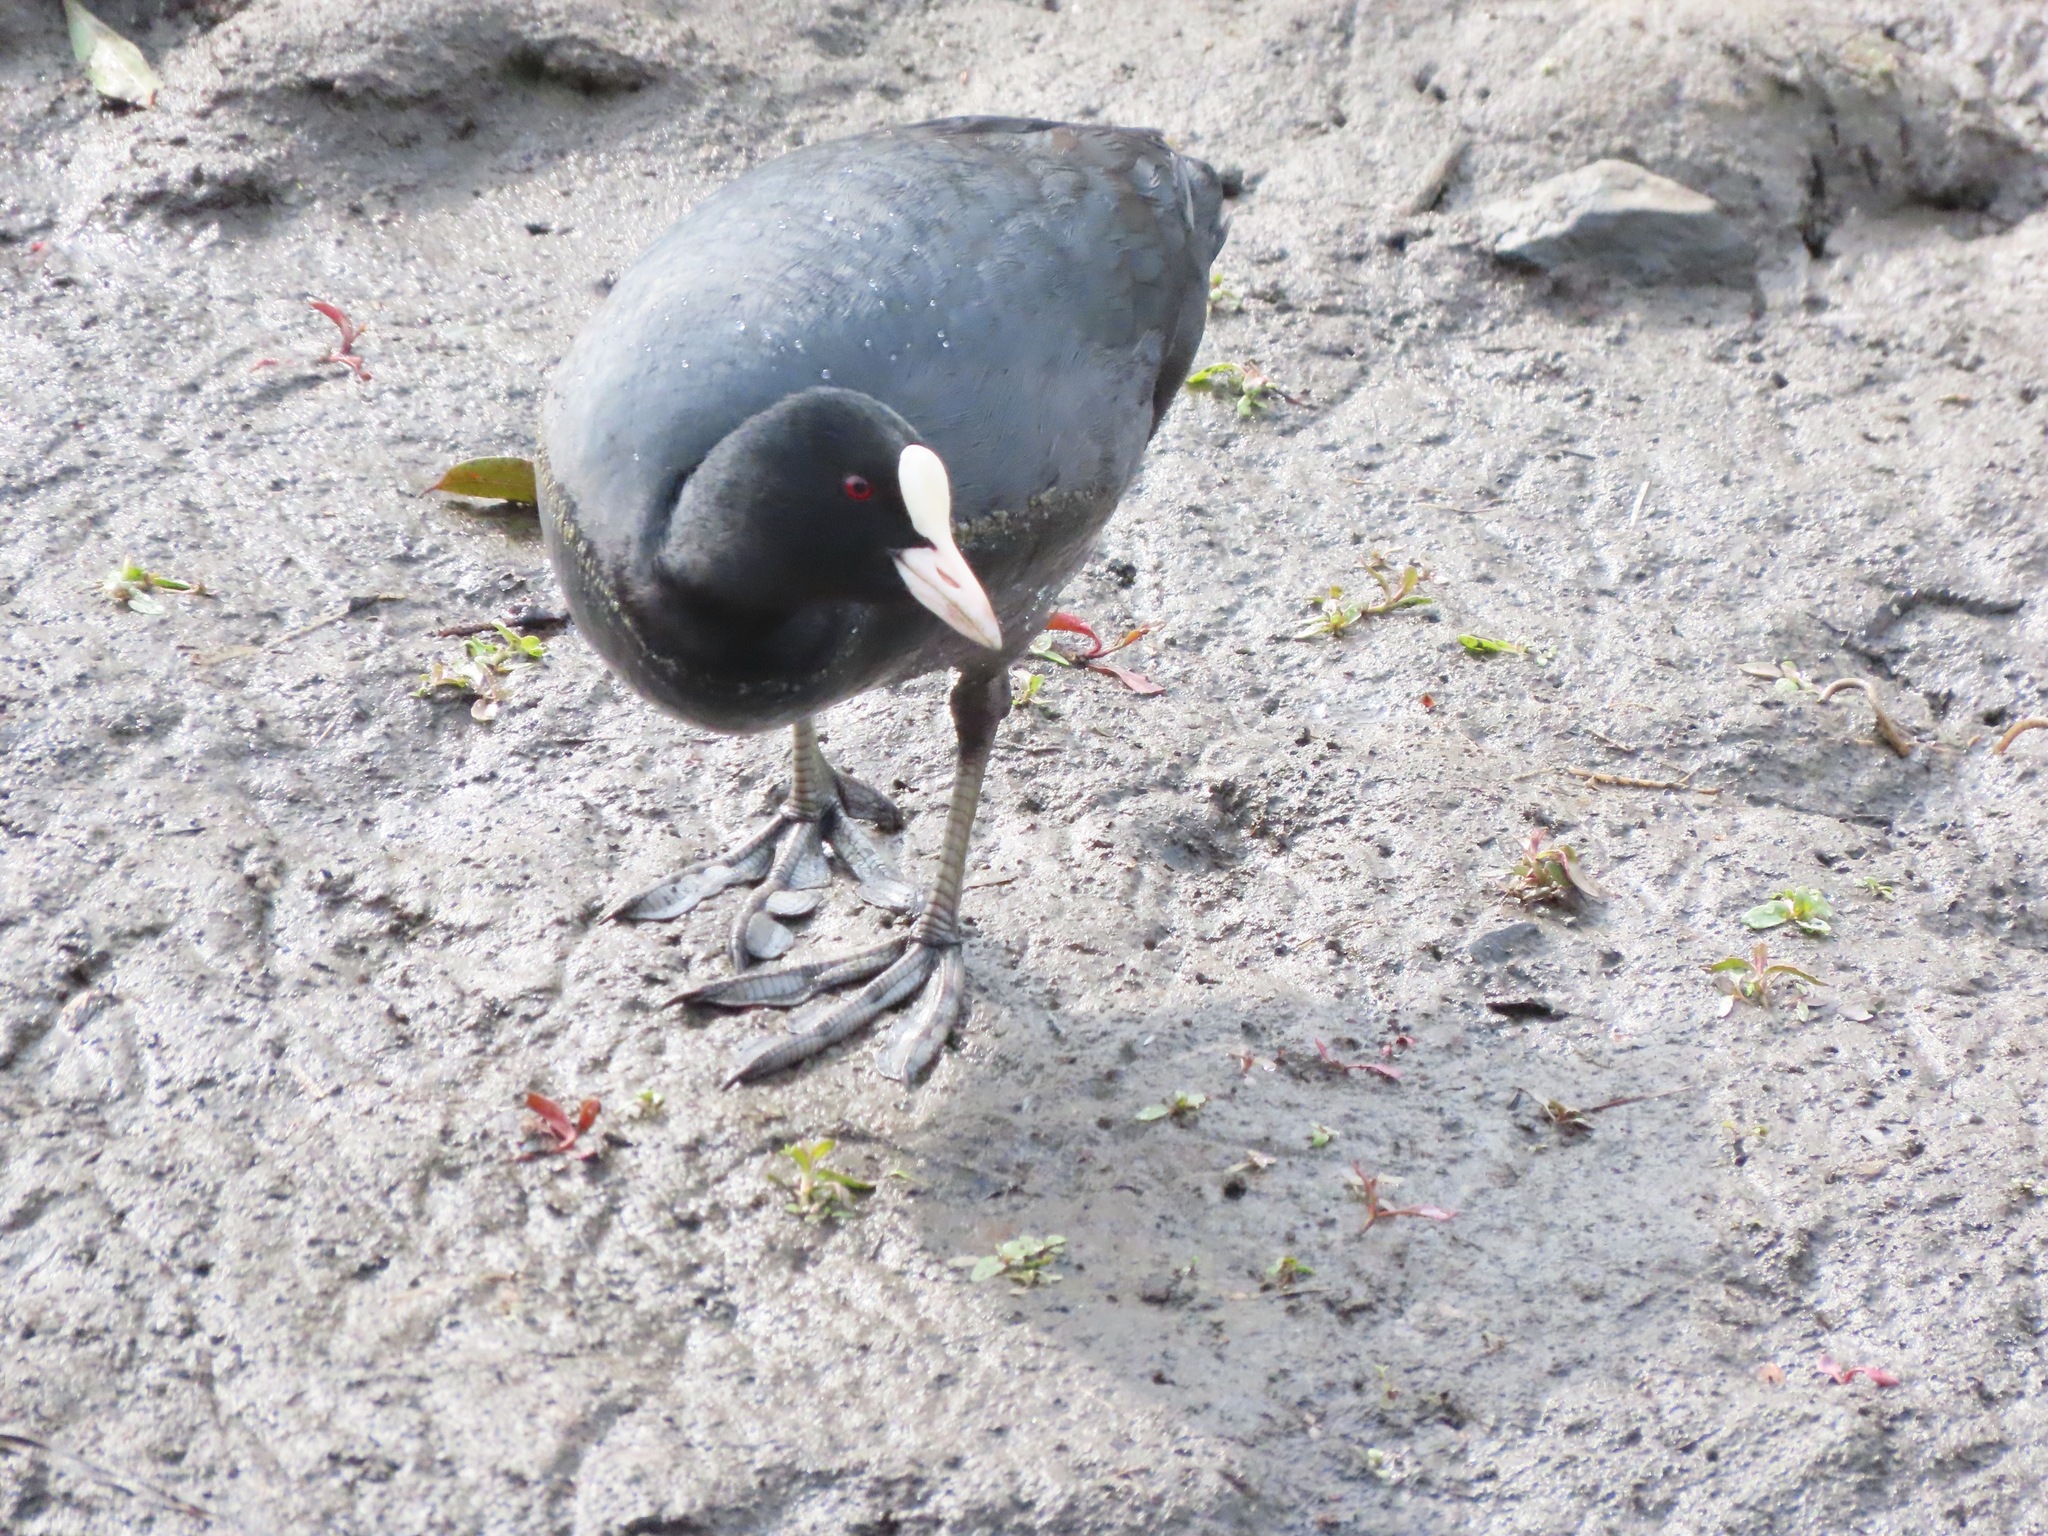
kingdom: Animalia
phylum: Chordata
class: Aves
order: Gruiformes
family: Rallidae
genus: Fulica
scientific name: Fulica atra
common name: Eurasian coot
